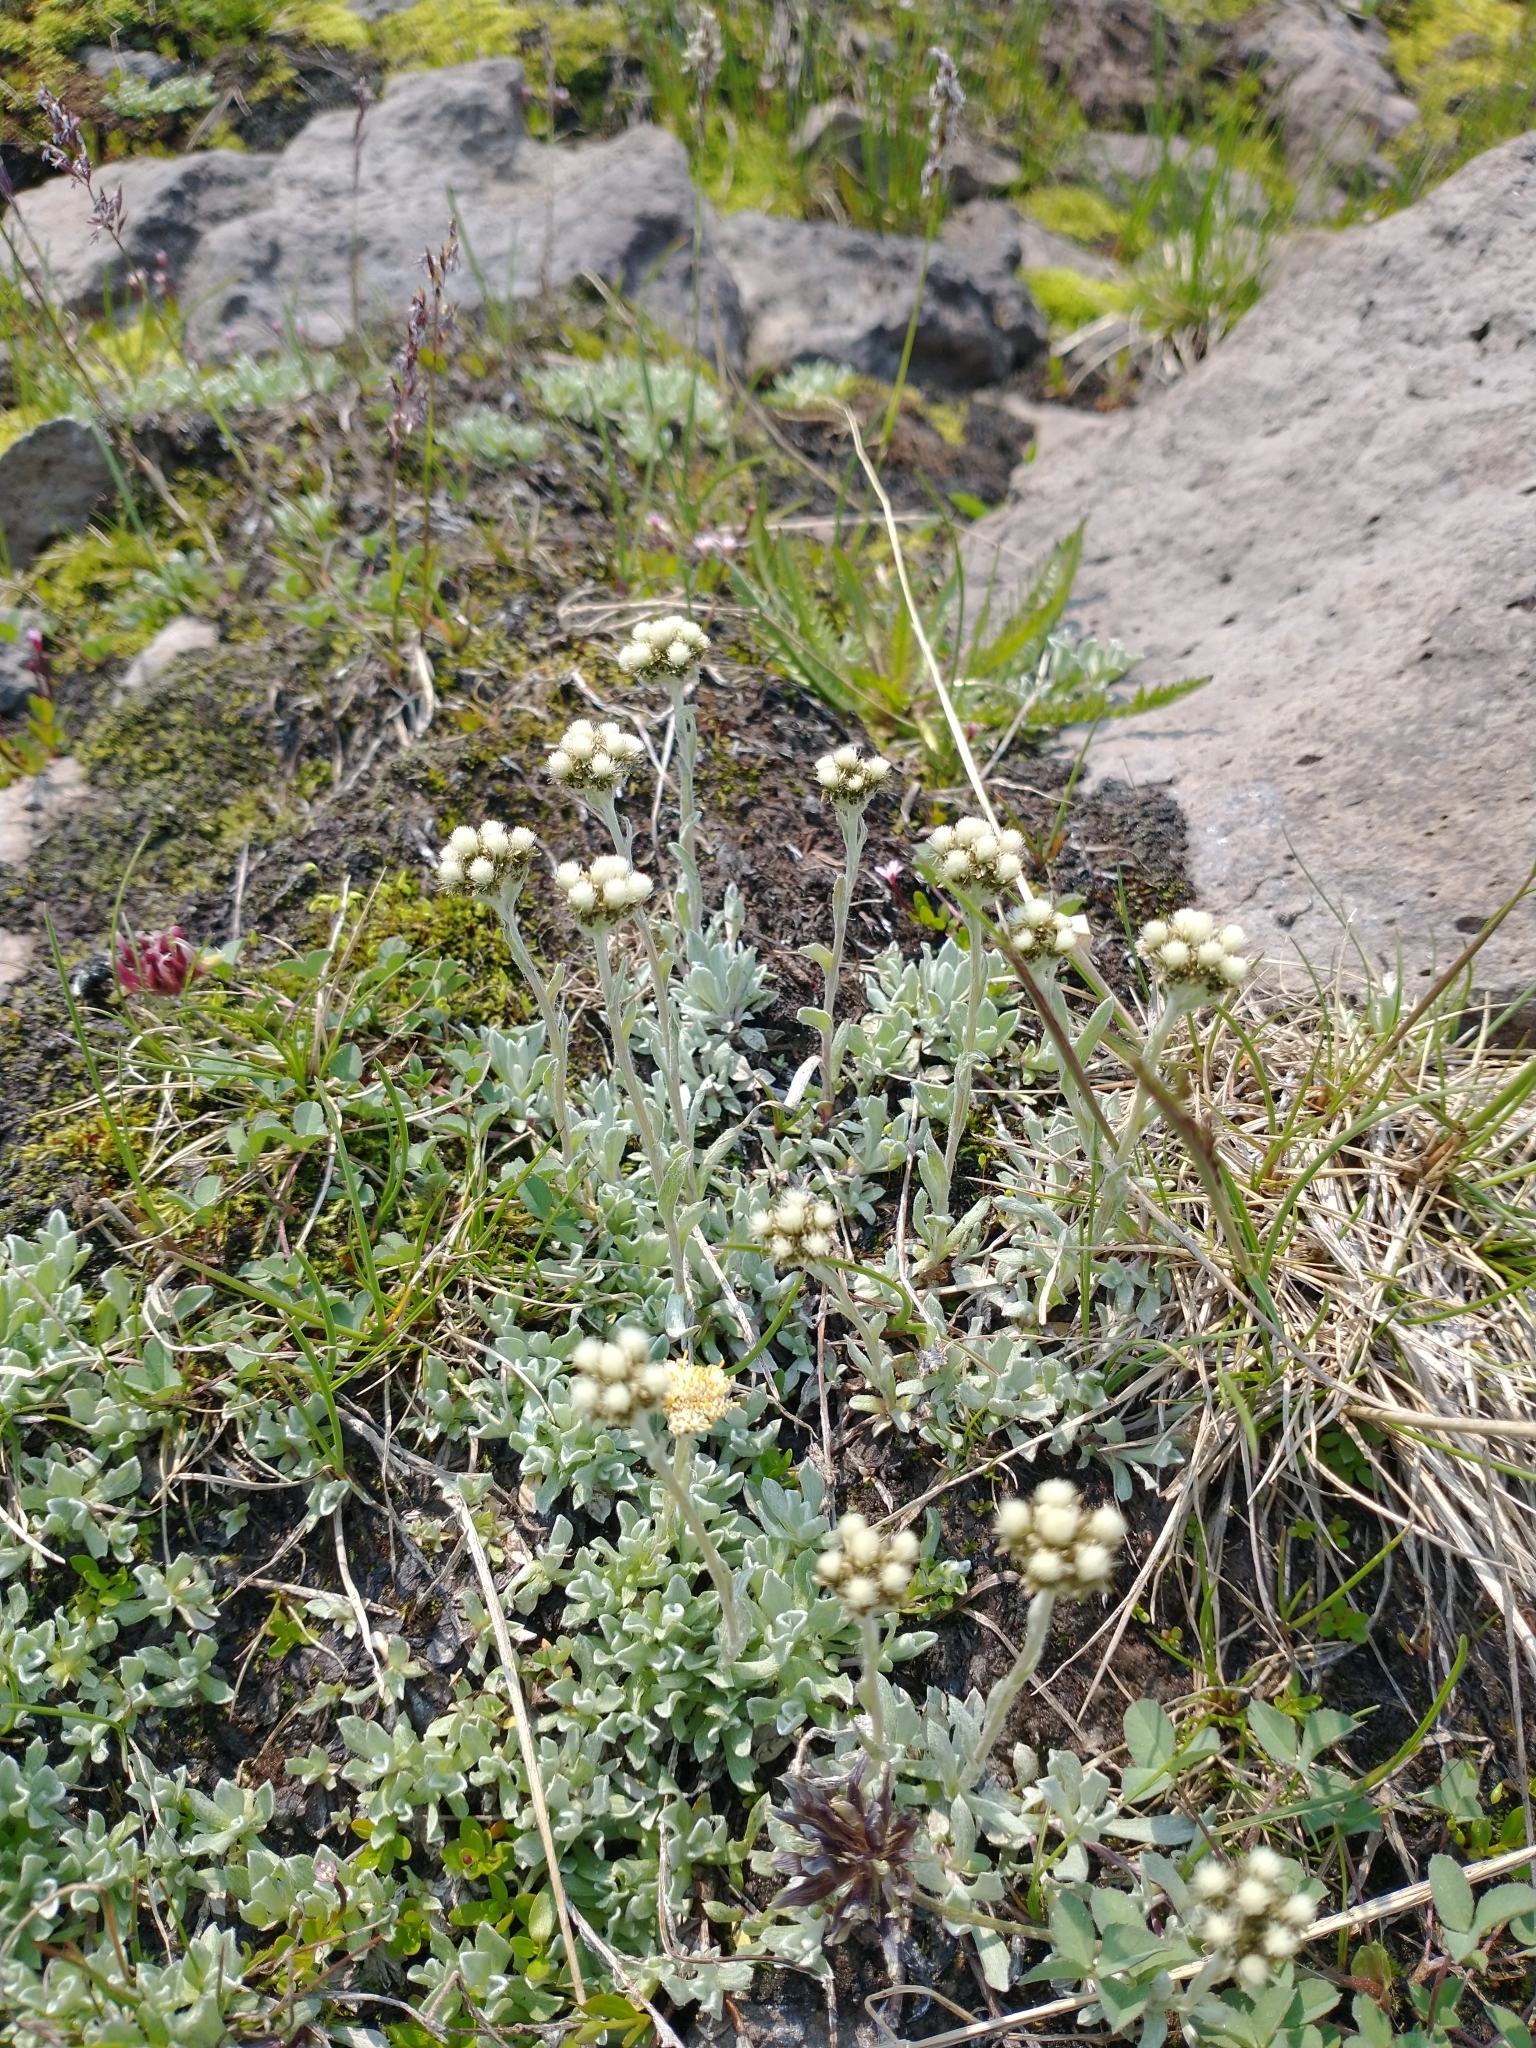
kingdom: Plantae
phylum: Tracheophyta
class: Magnoliopsida
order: Asterales
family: Asteraceae
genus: Antennaria
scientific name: Antennaria media
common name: Rocky mountain pussytoes
